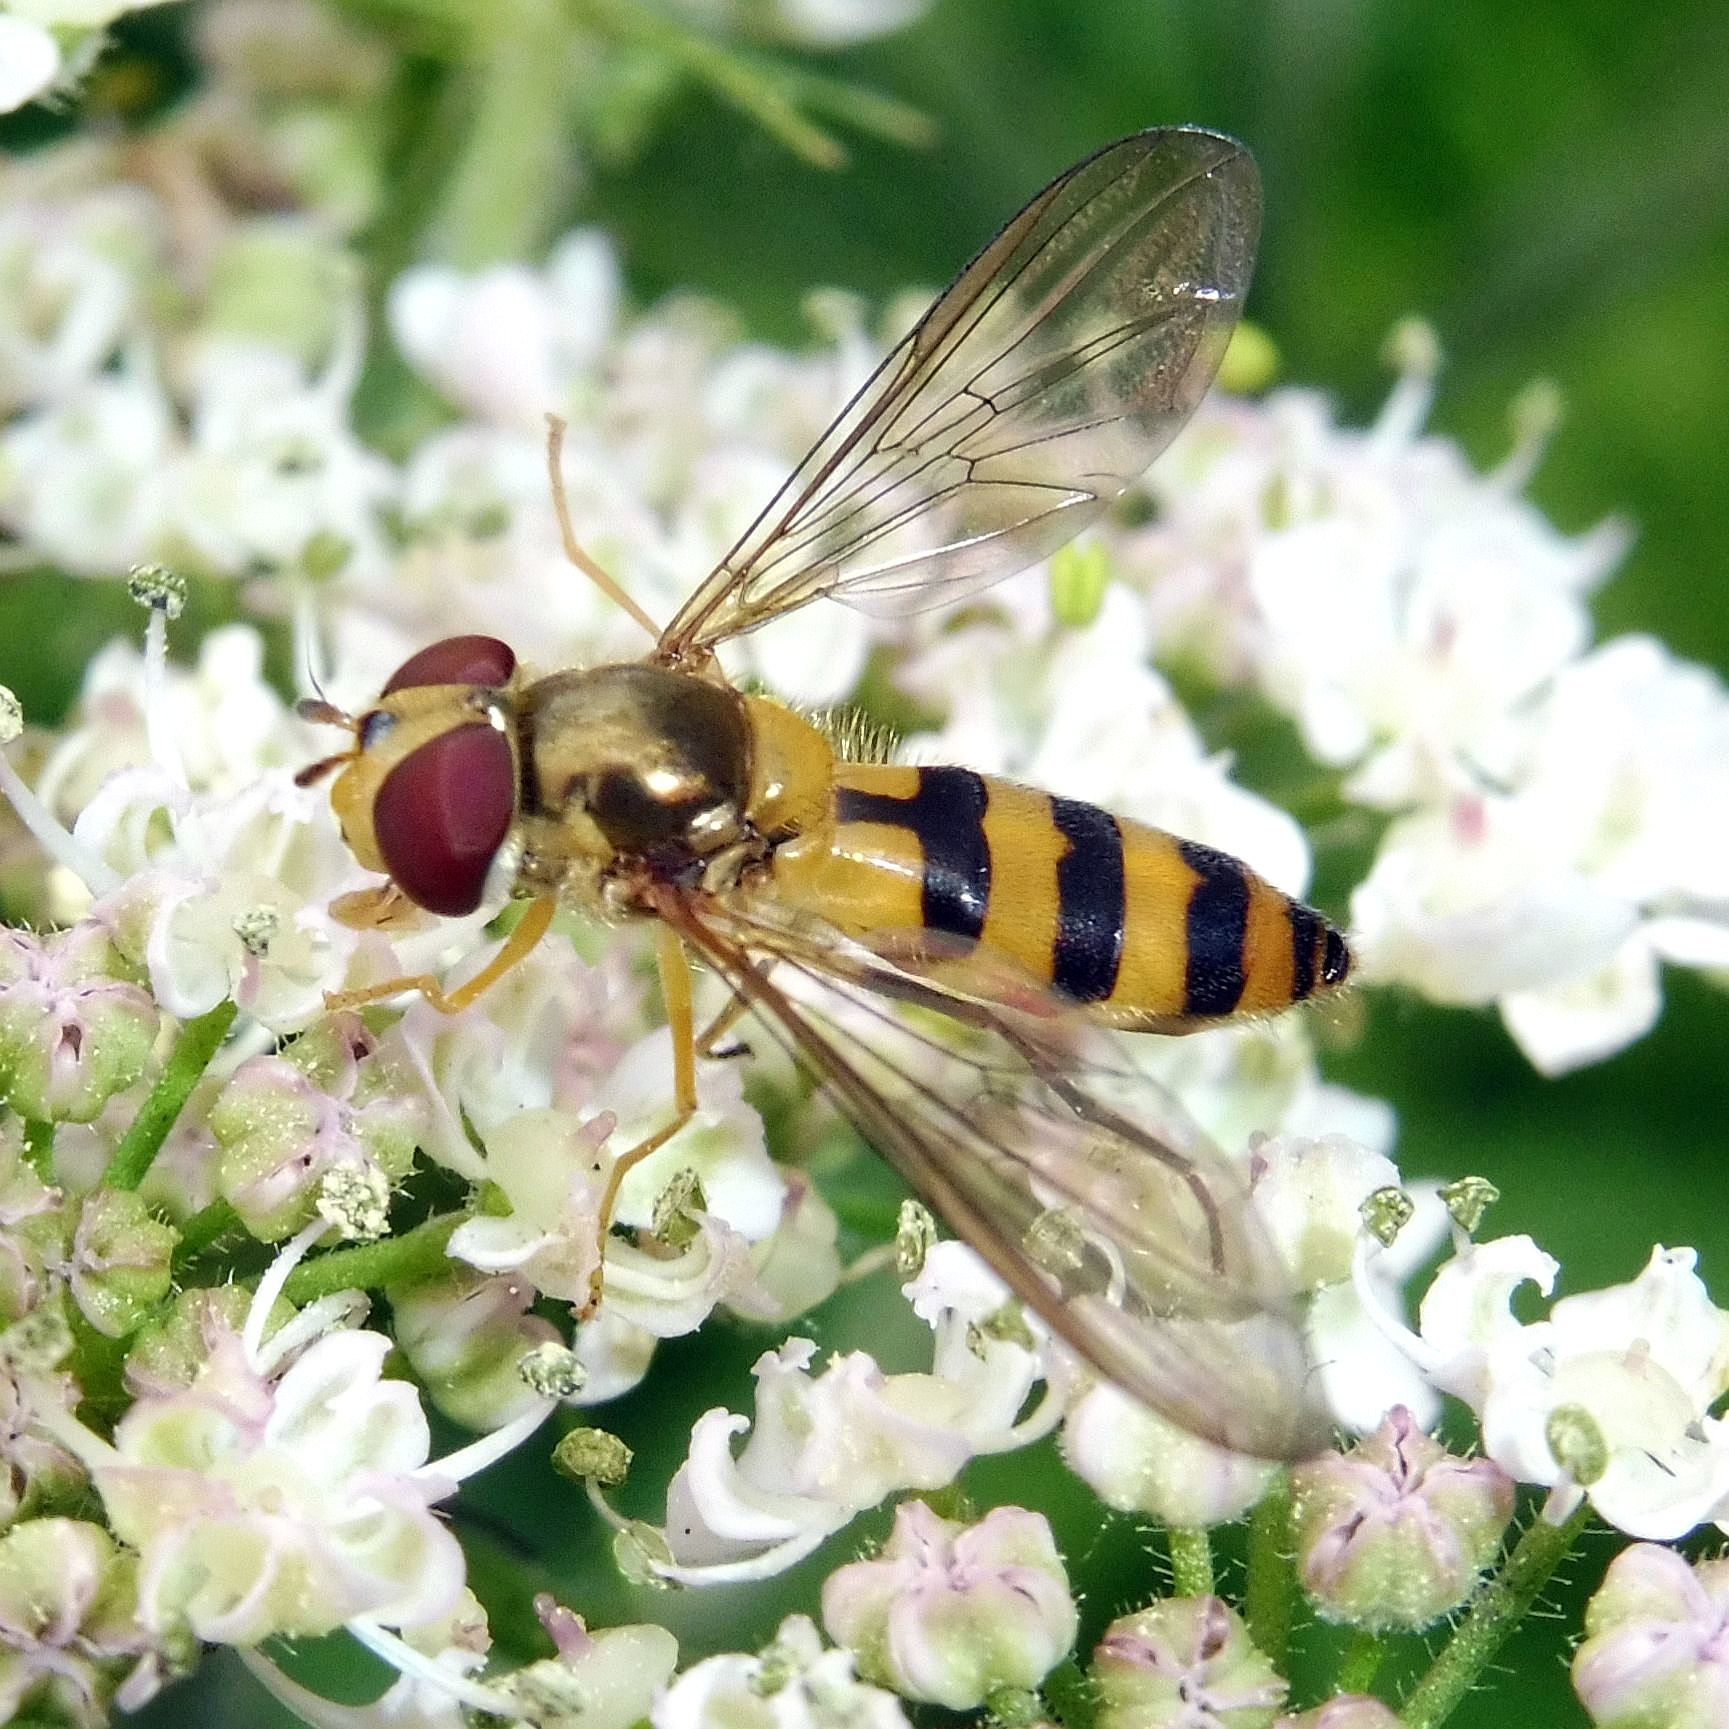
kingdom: Animalia
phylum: Arthropoda
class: Insecta
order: Diptera
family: Syrphidae
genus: Meliscaeva
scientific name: Meliscaeva cinctella
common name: American thintail fly
